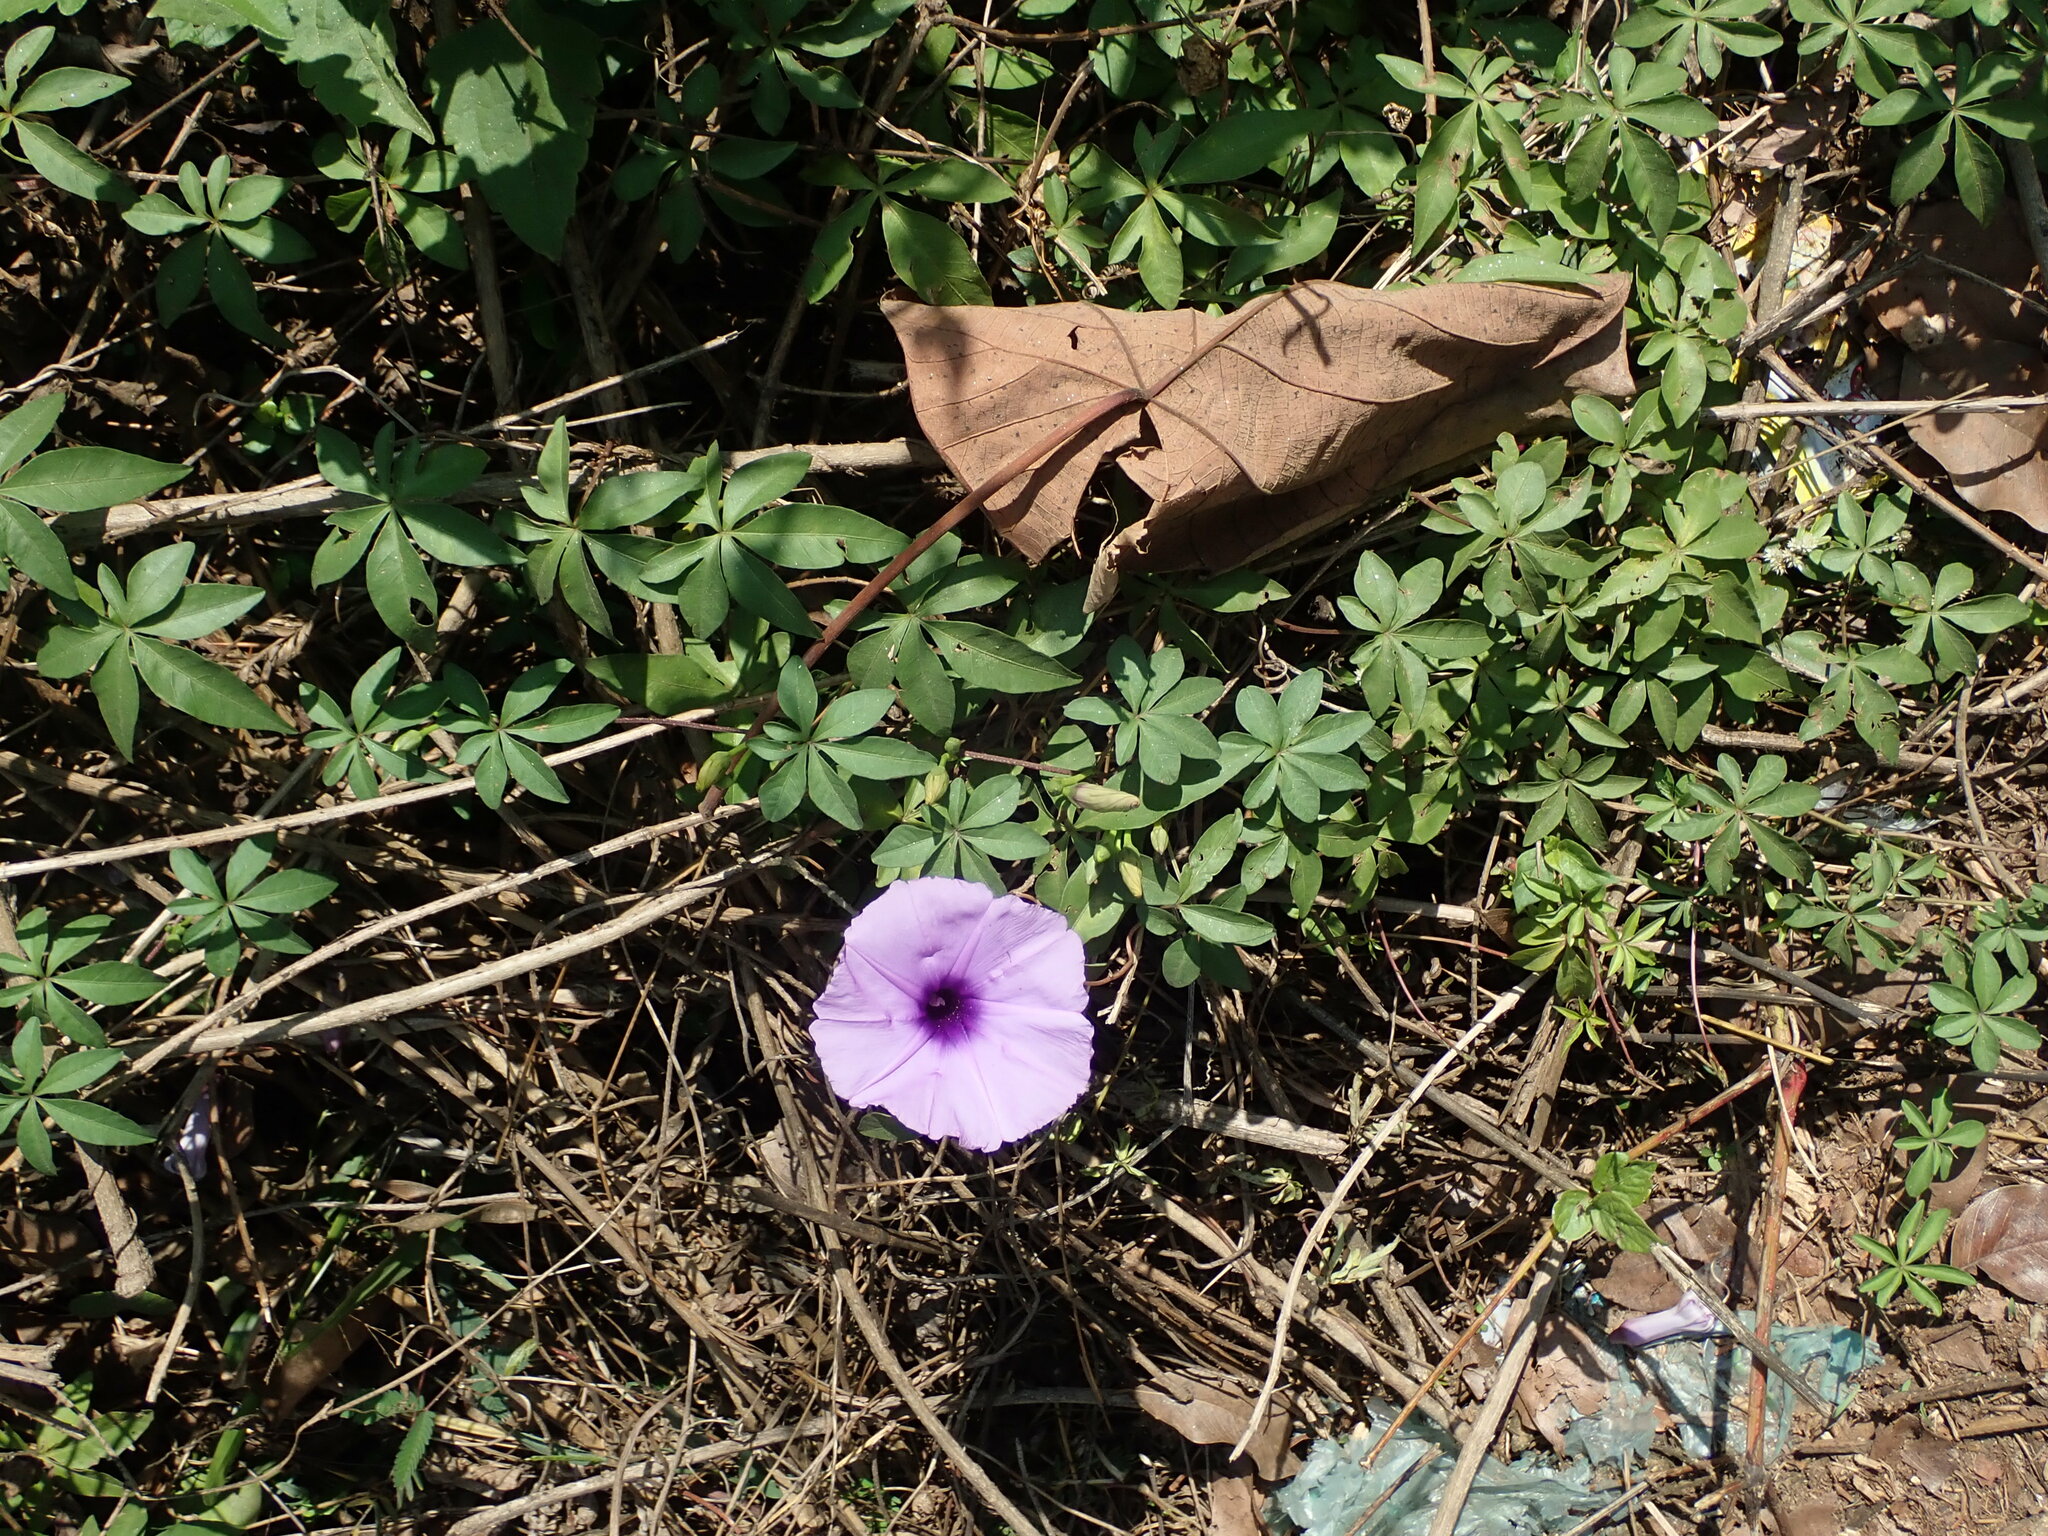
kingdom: Plantae
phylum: Tracheophyta
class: Magnoliopsida
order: Solanales
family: Convolvulaceae
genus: Ipomoea
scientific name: Ipomoea cairica
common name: Mile a minute vine
